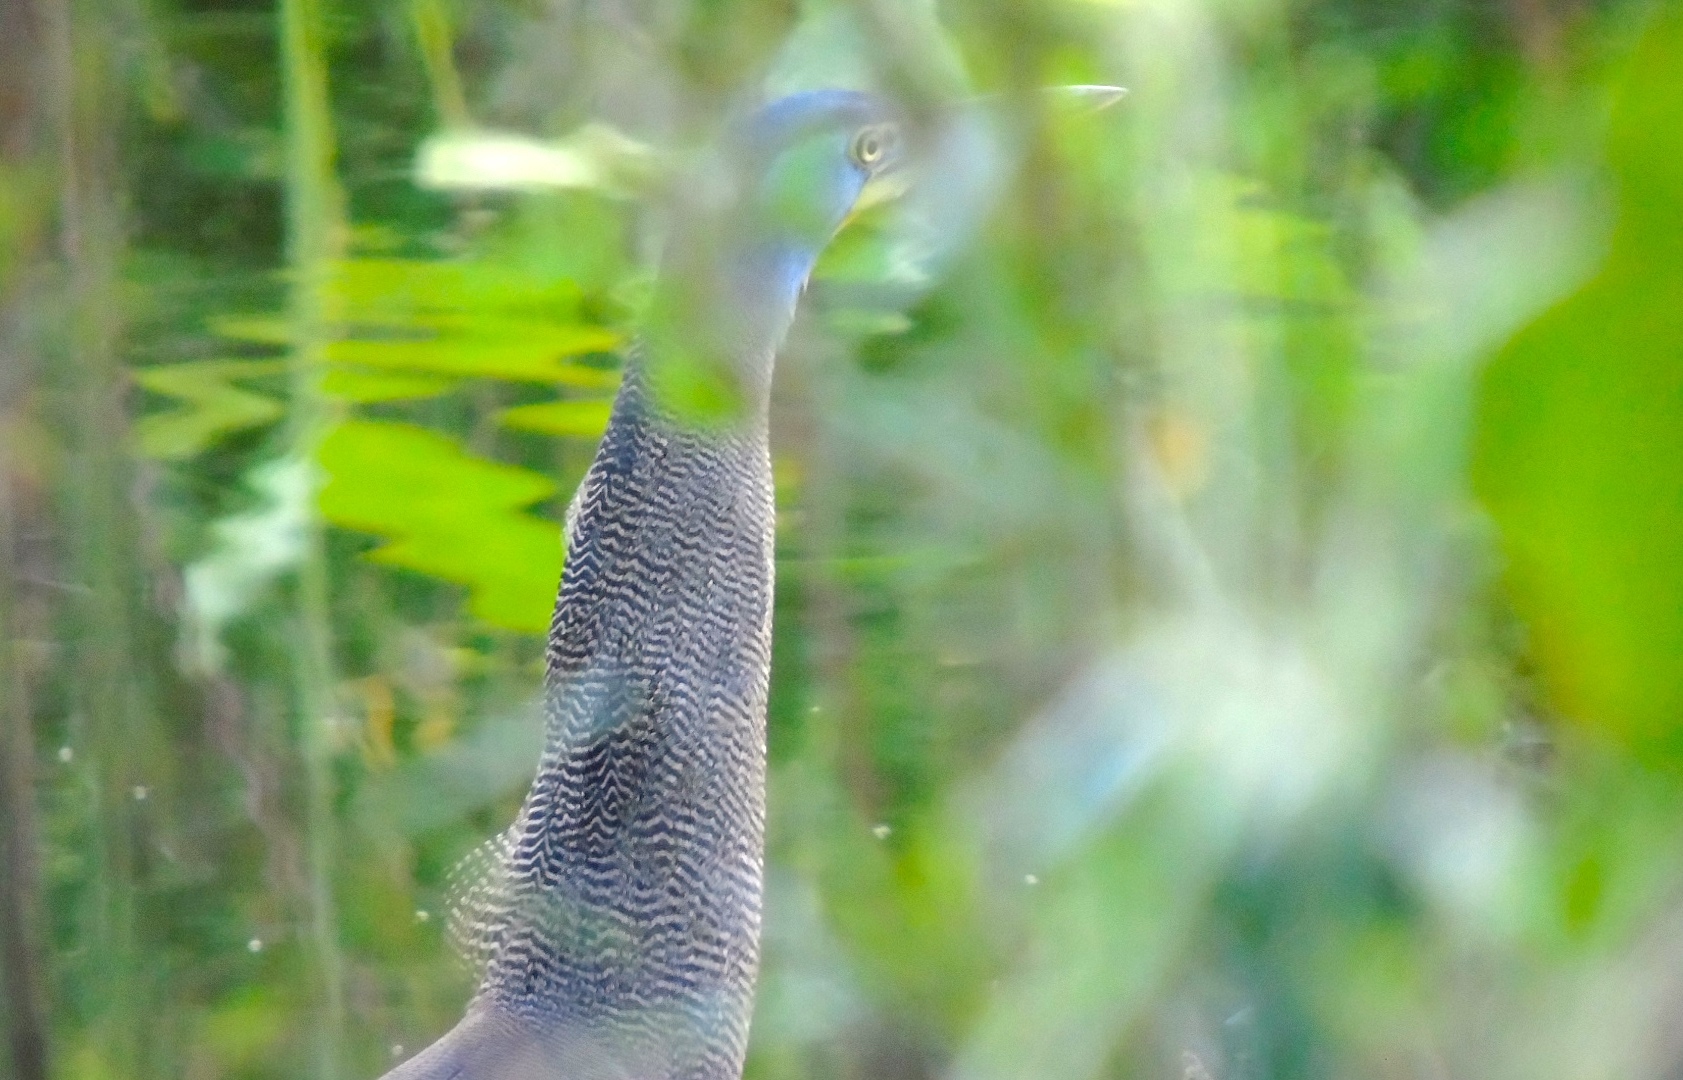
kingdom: Animalia
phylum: Chordata
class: Aves
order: Pelecaniformes
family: Ardeidae
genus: Tigrisoma
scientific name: Tigrisoma mexicanum
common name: Bare-throated tiger-heron
